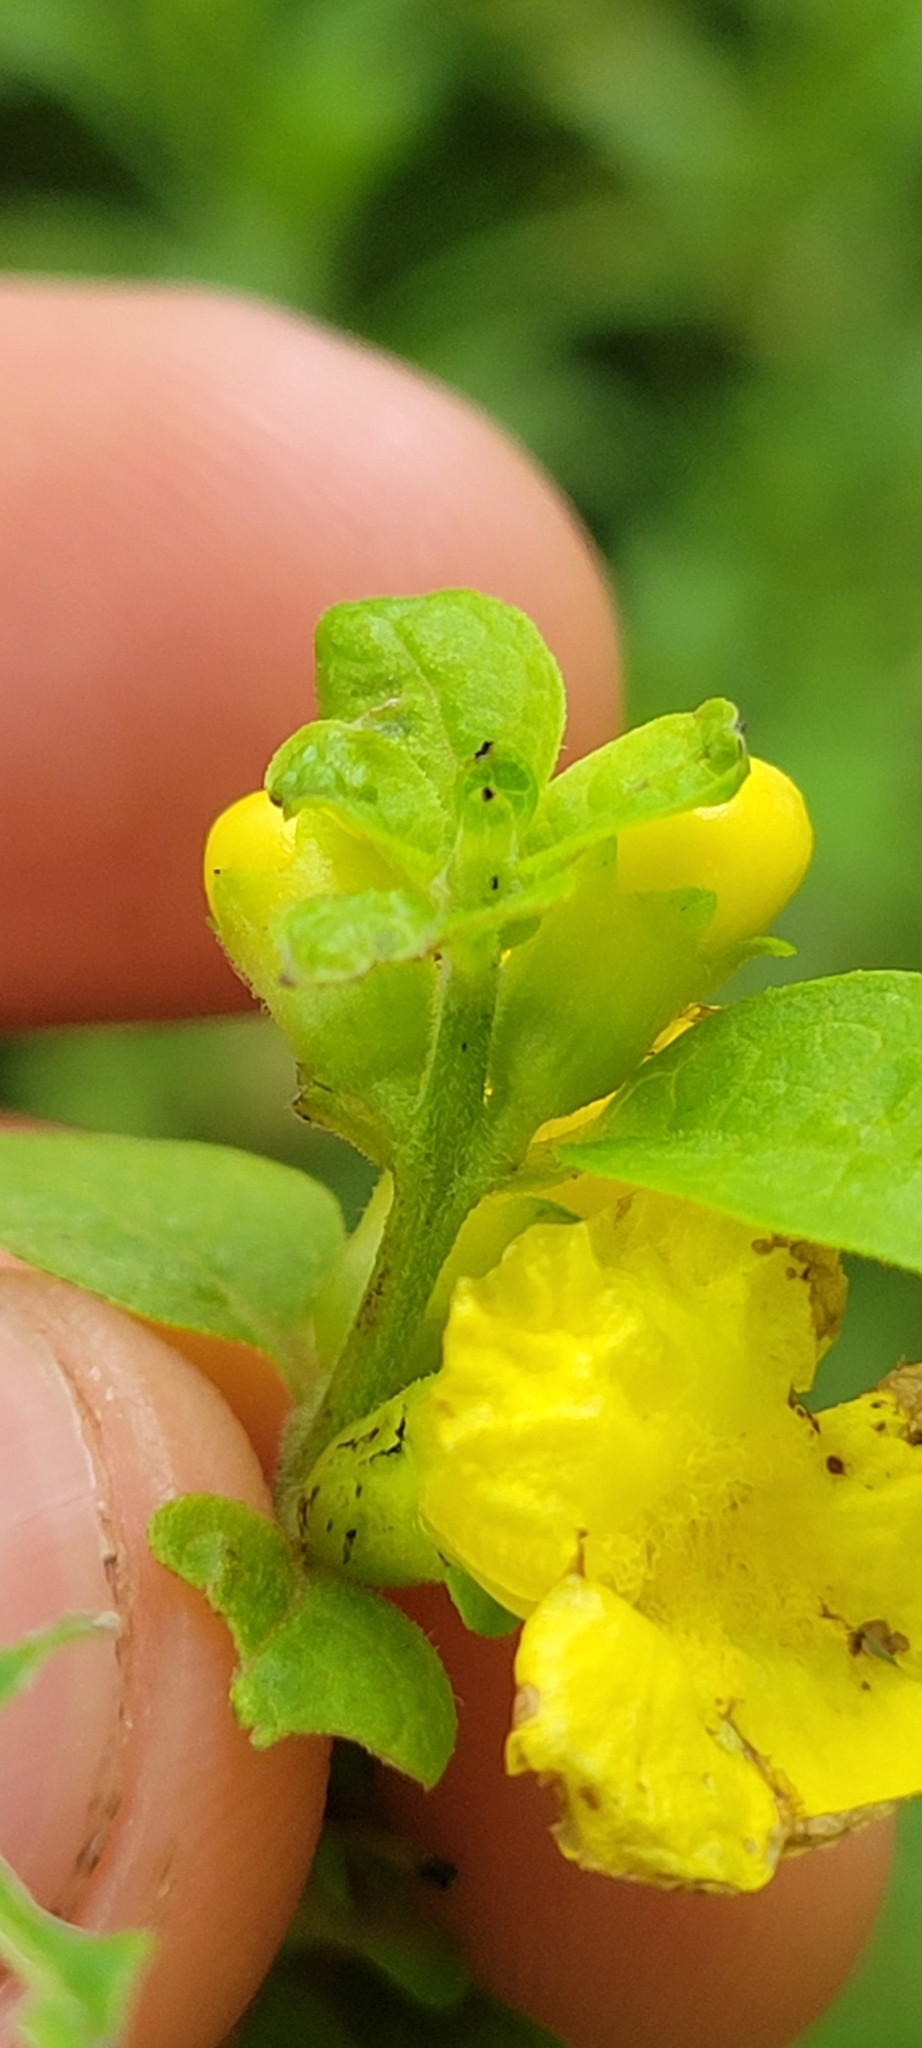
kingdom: Plantae
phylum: Tracheophyta
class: Magnoliopsida
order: Lamiales
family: Orobanchaceae
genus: Dasistoma
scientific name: Dasistoma macrophyllum
